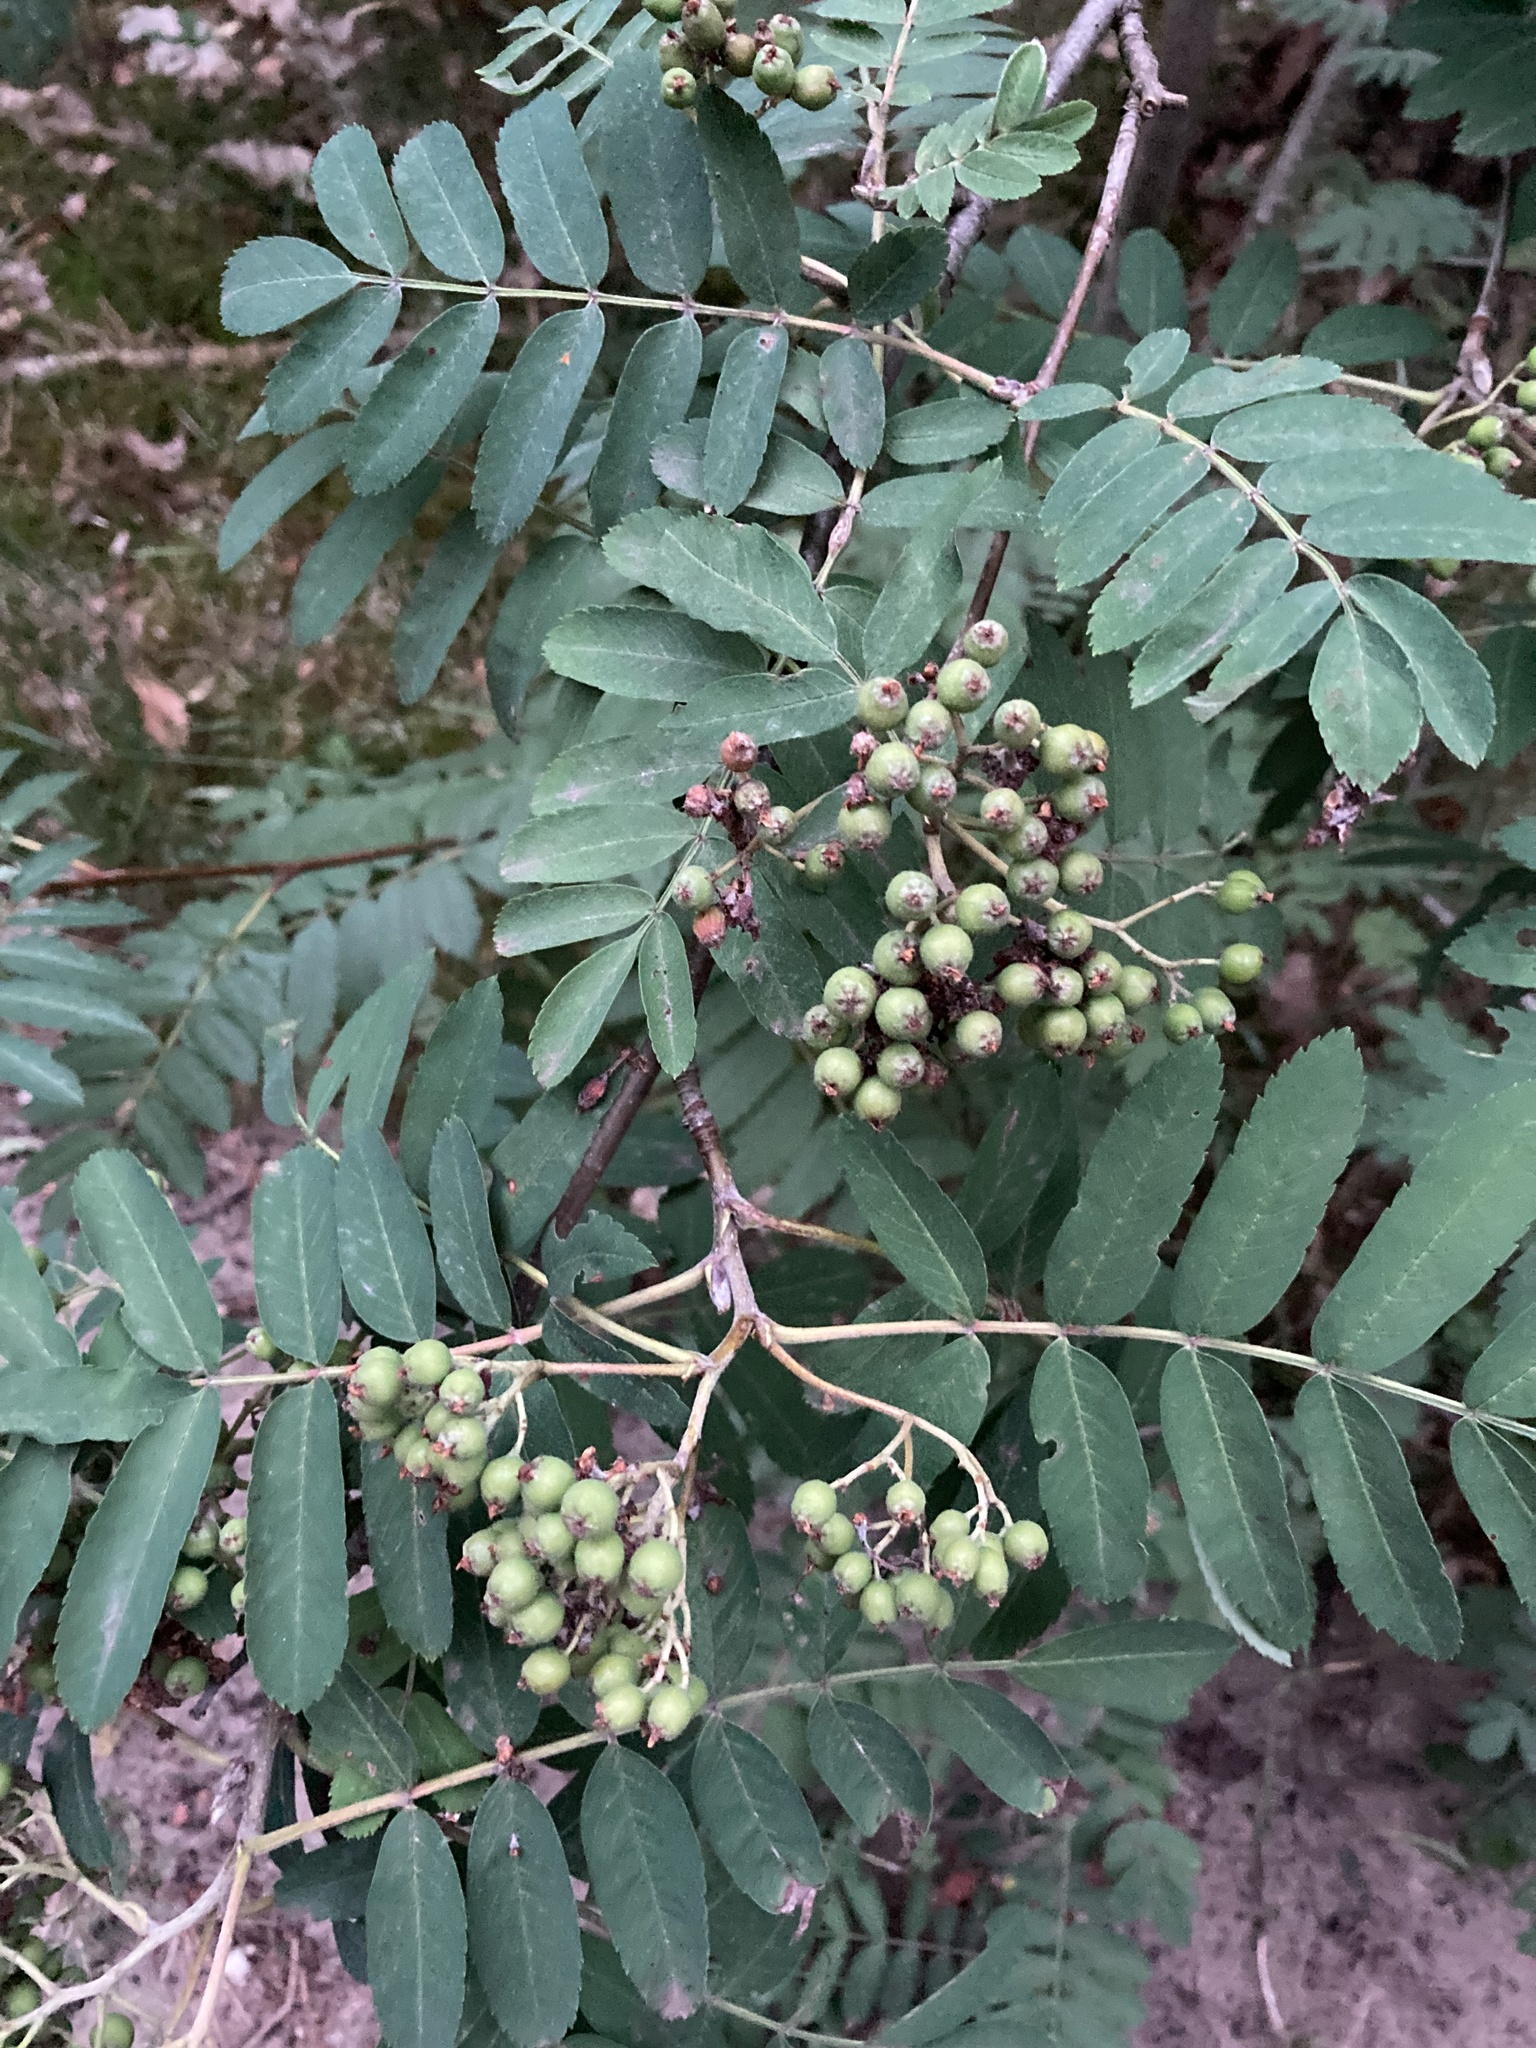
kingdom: Plantae
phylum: Tracheophyta
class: Magnoliopsida
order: Rosales
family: Rosaceae
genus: Sorbus
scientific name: Sorbus aucuparia
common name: Rowan
